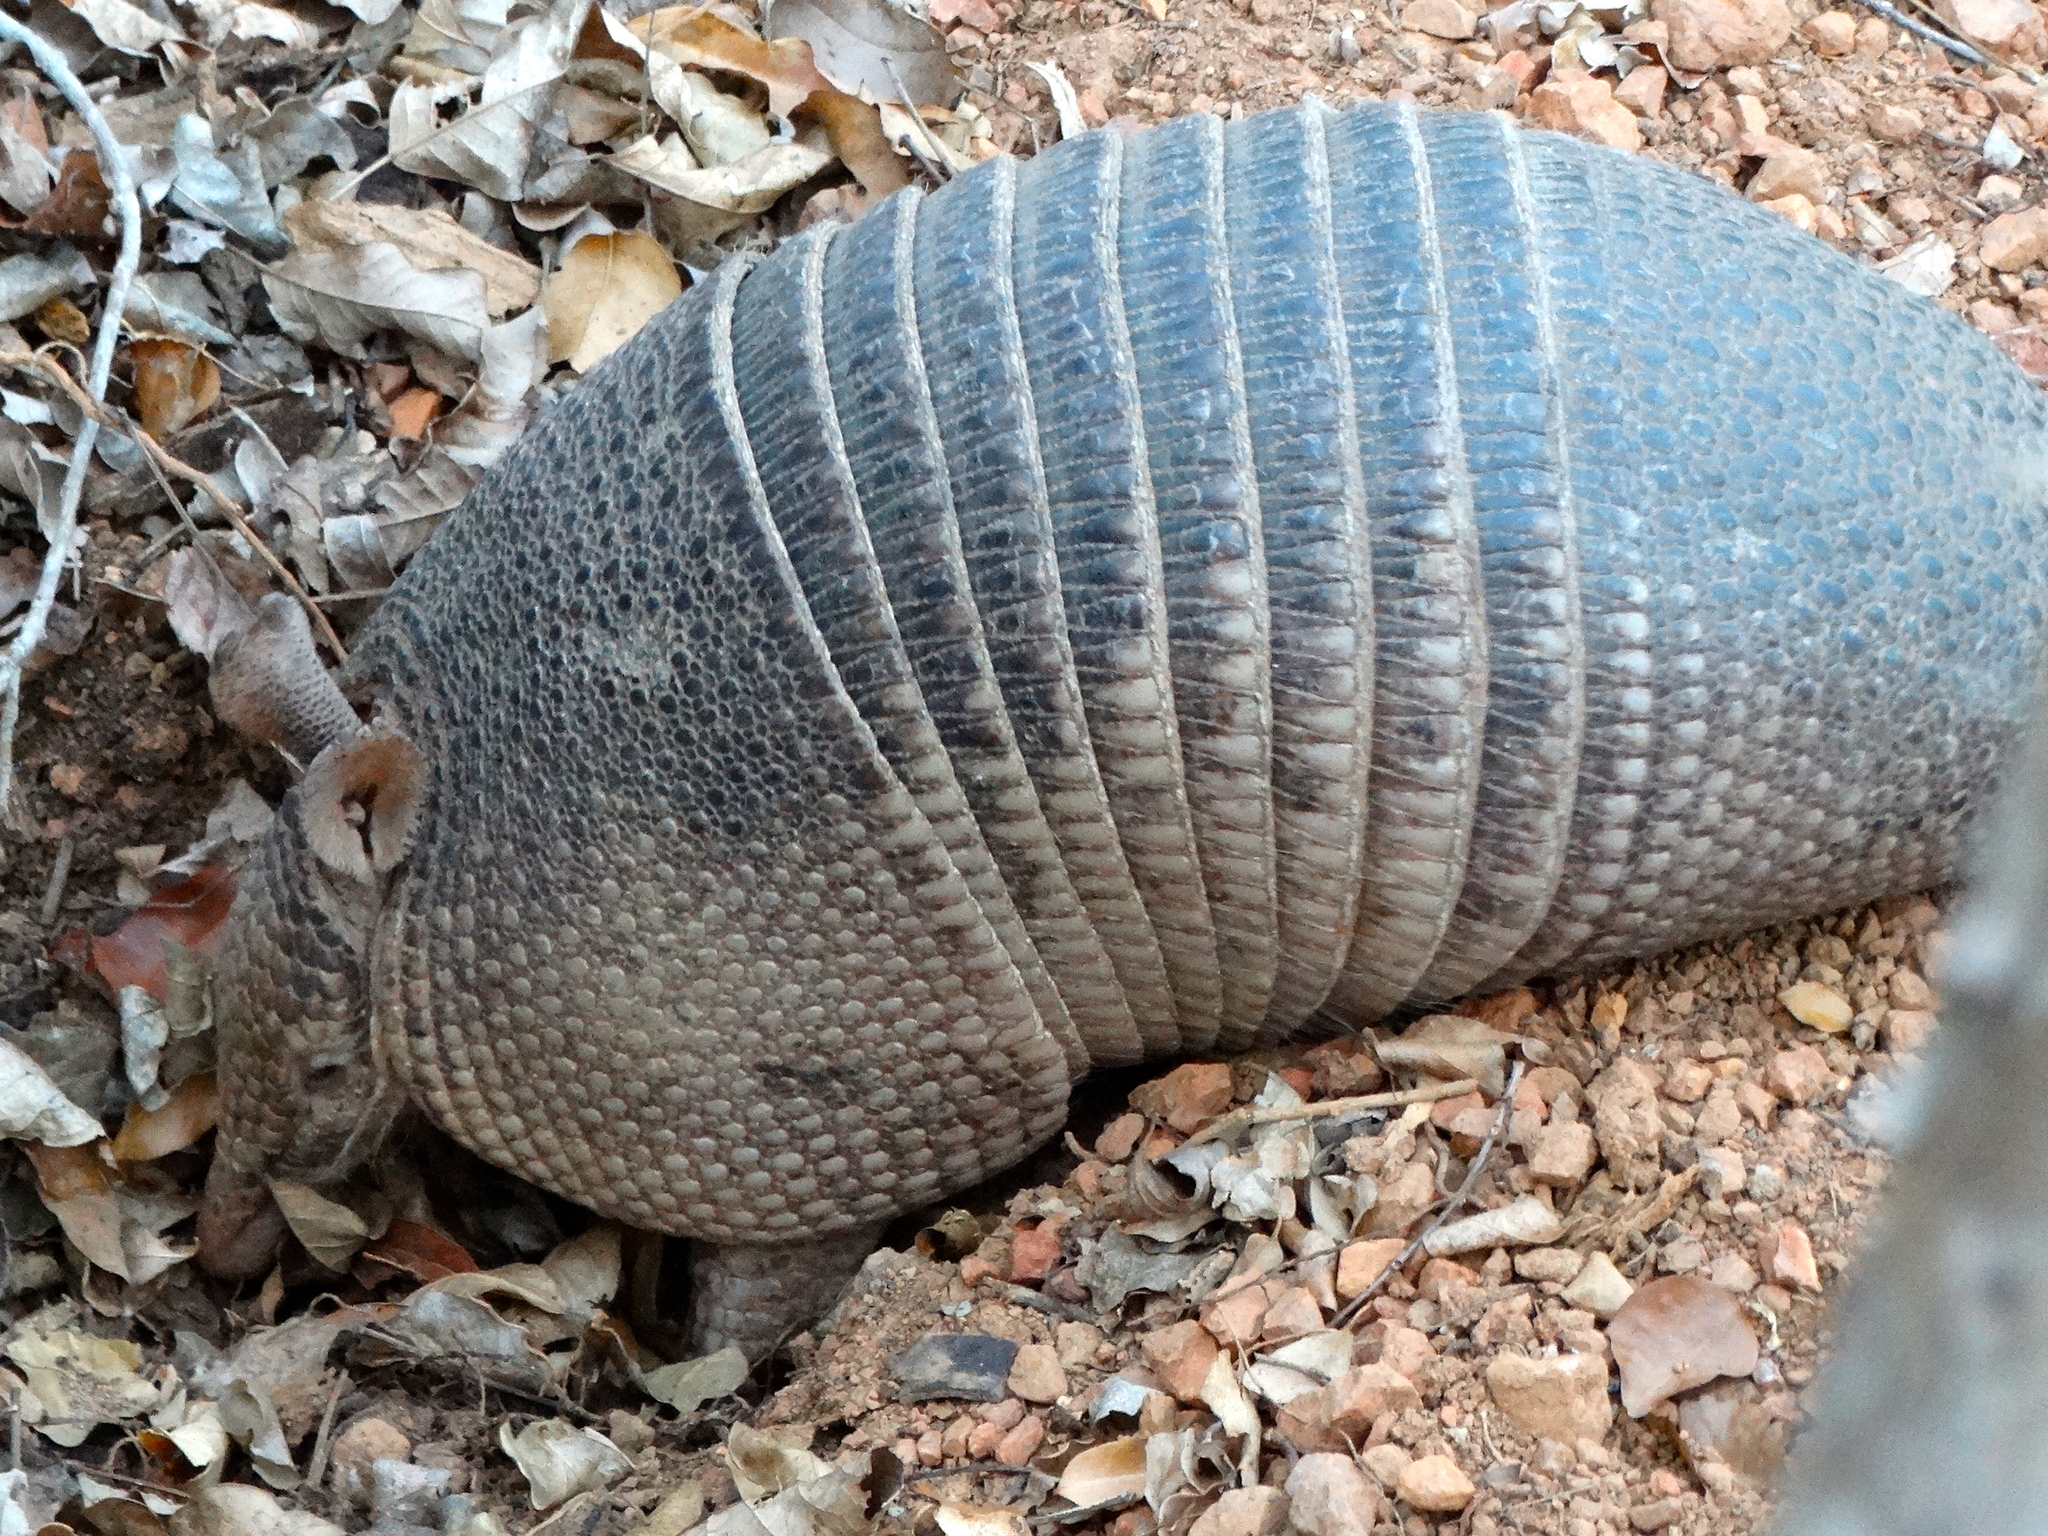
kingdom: Animalia
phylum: Chordata
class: Mammalia
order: Cingulata
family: Dasypodidae
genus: Dasypus
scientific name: Dasypus novemcinctus
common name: Nine-banded armadillo
